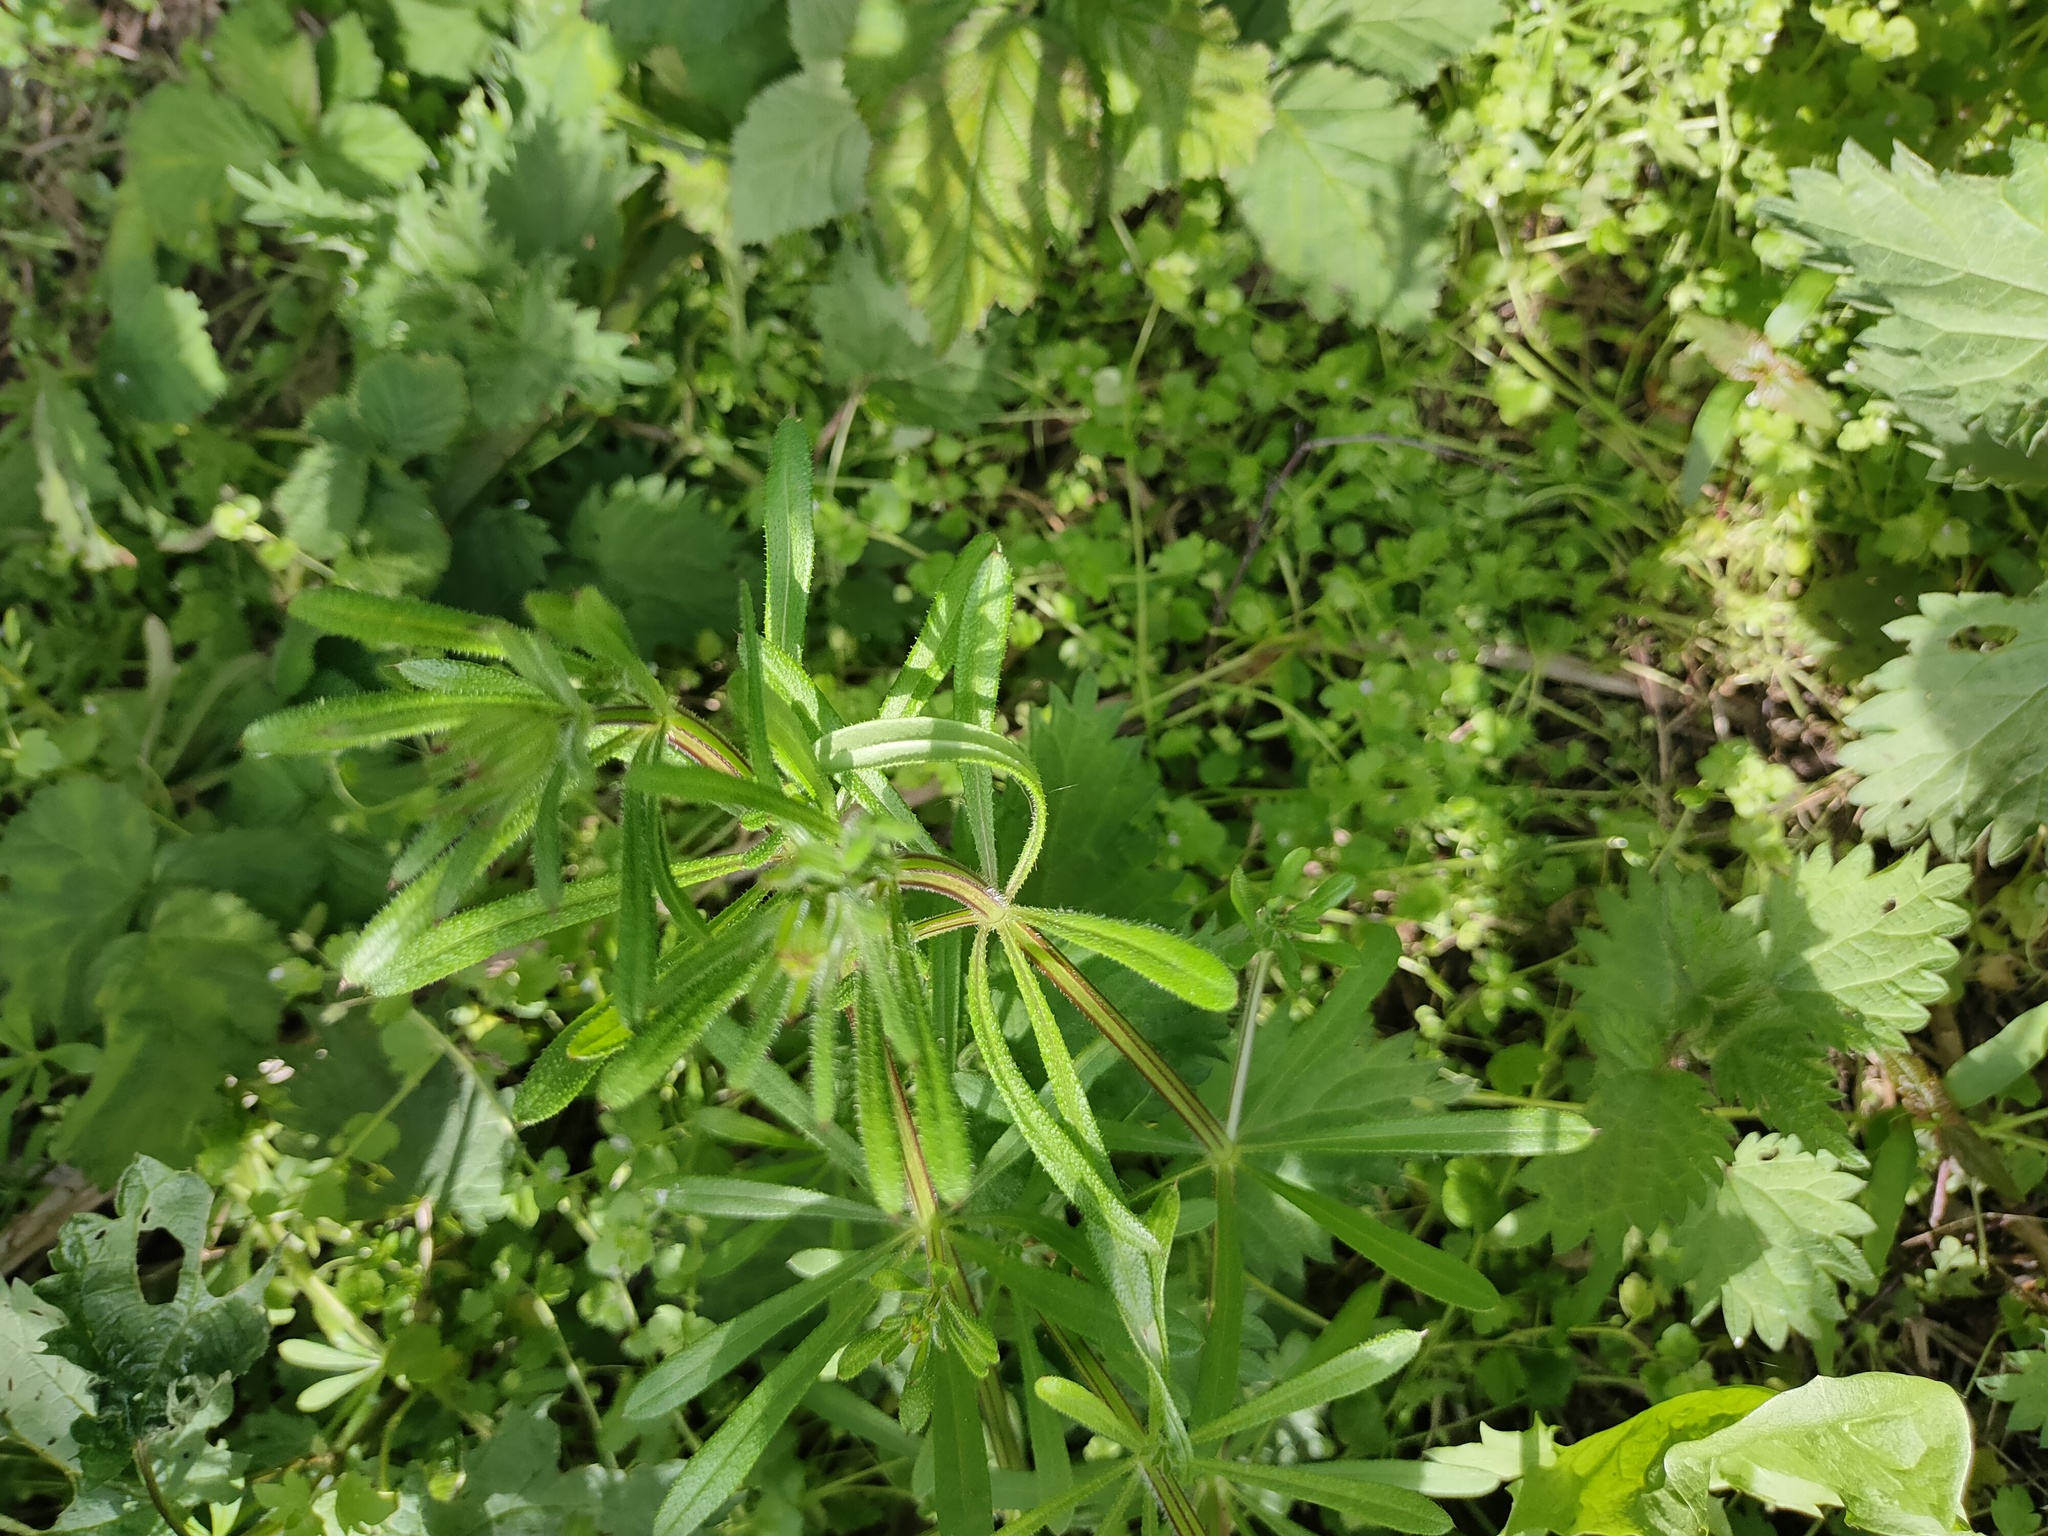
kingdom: Plantae
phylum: Tracheophyta
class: Magnoliopsida
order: Gentianales
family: Rubiaceae
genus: Galium
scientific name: Galium aparine
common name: Cleavers
